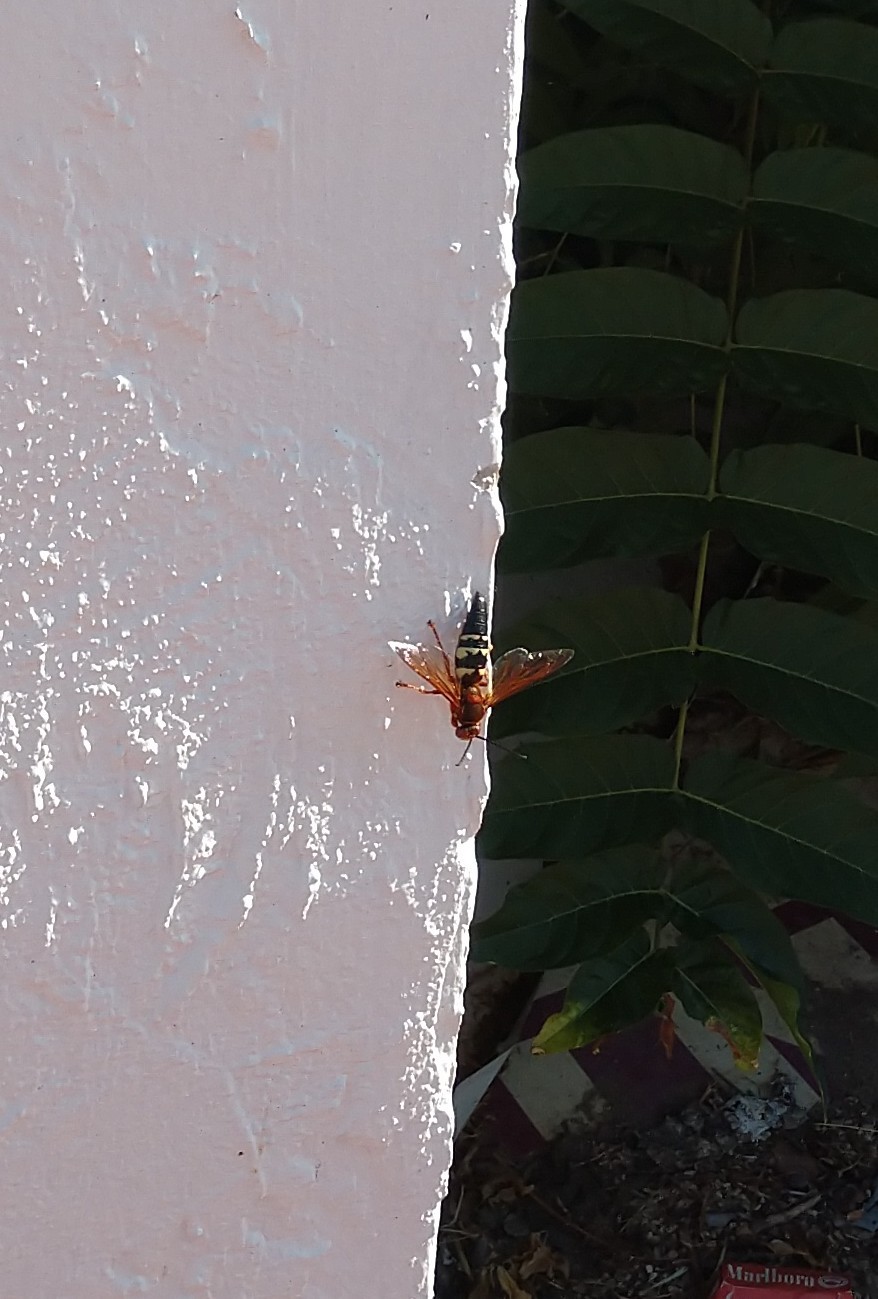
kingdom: Animalia
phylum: Arthropoda
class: Insecta
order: Hymenoptera
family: Crabronidae
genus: Sphecius
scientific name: Sphecius speciosus
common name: Cicada killer
